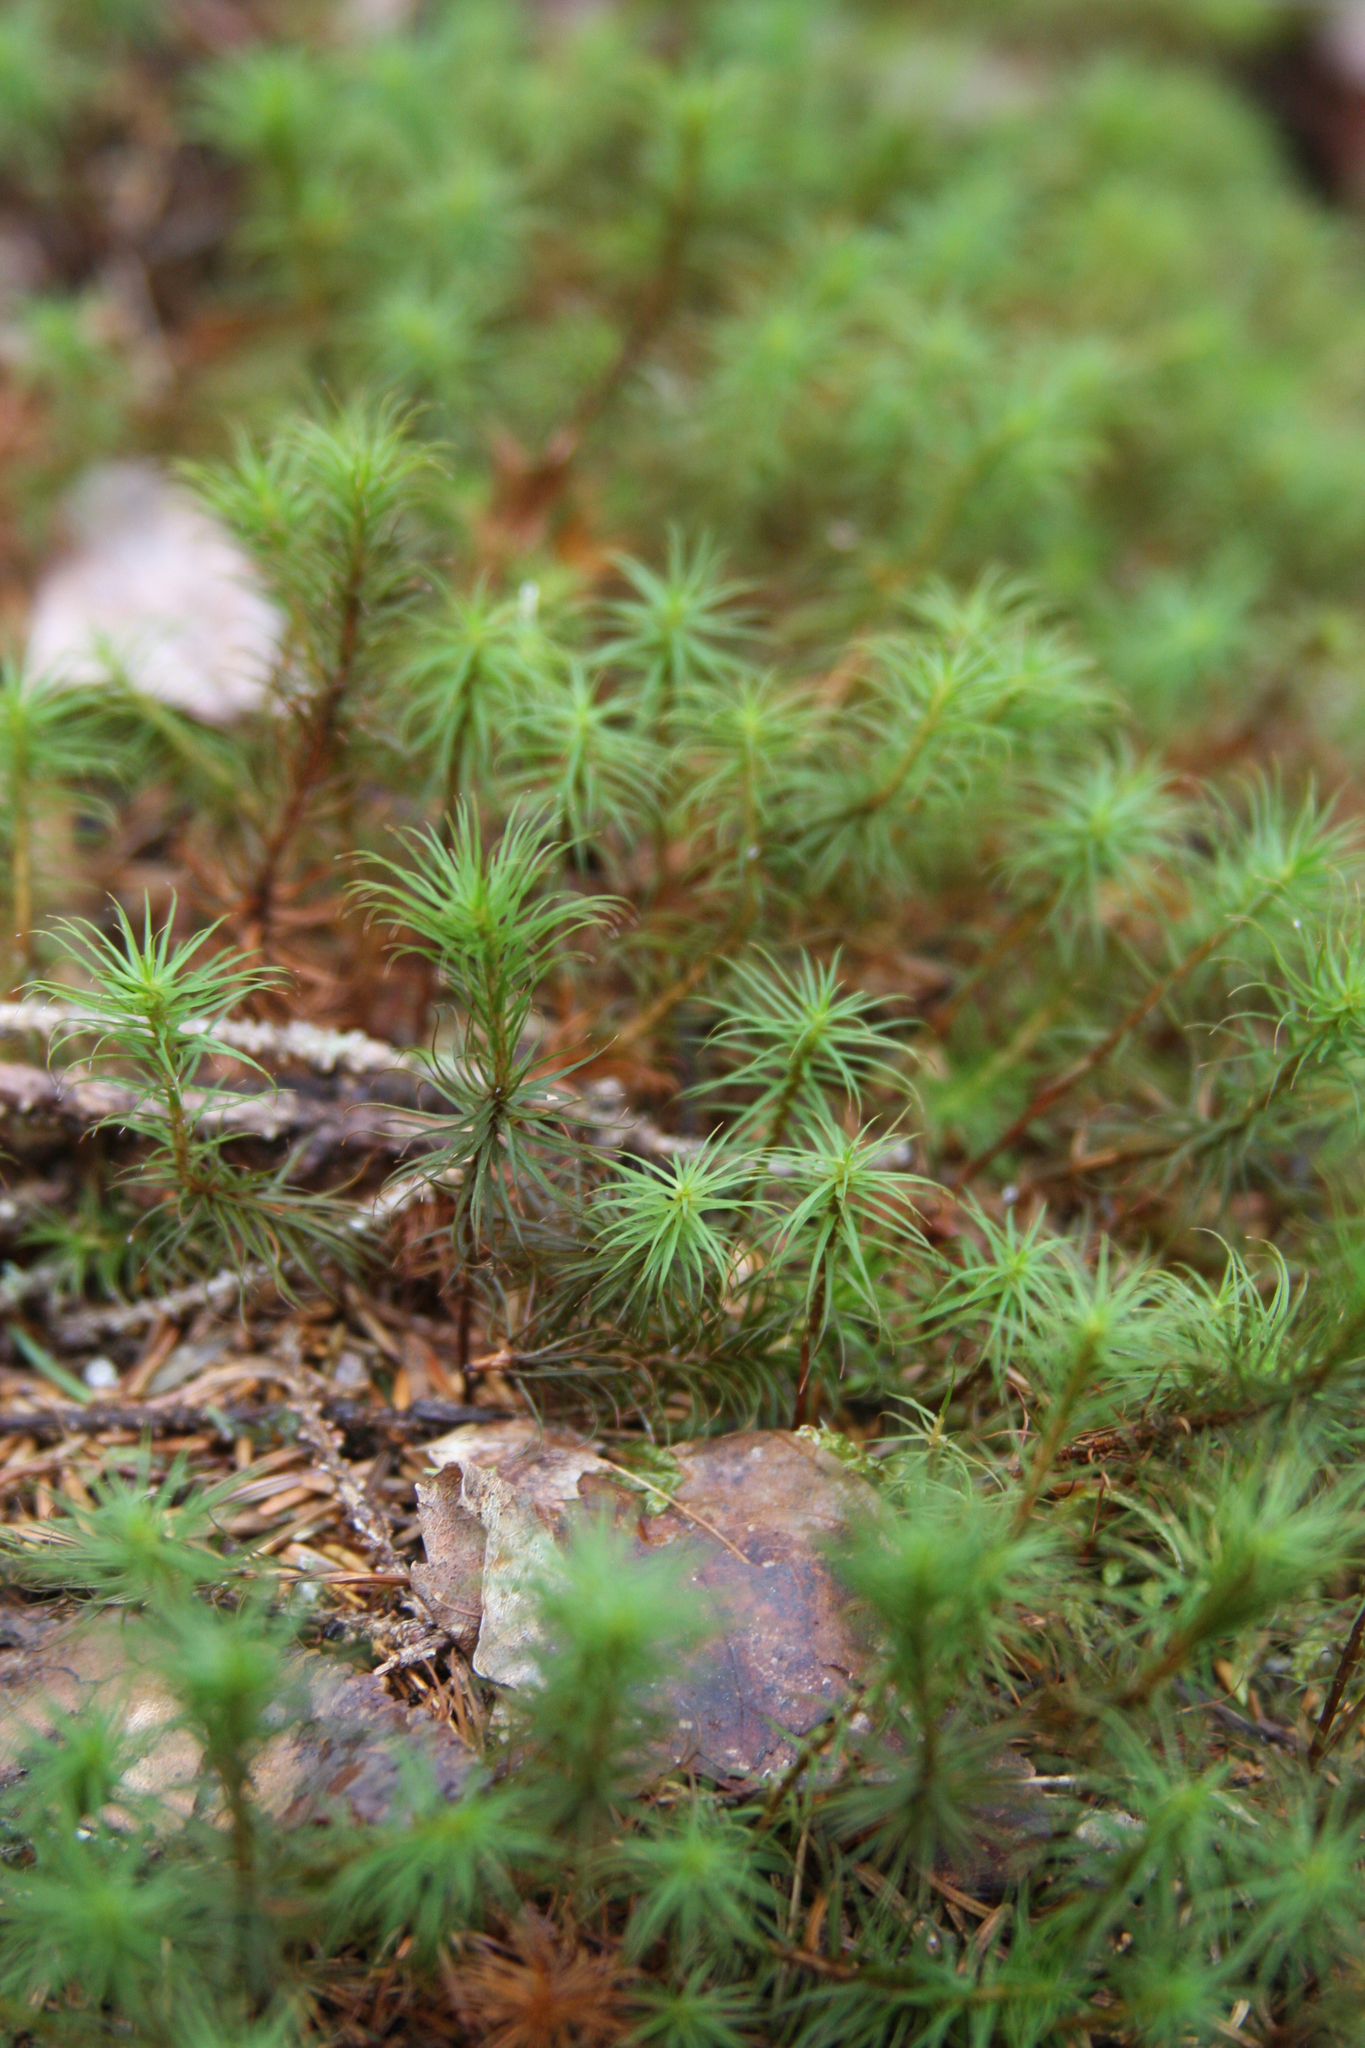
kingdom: Plantae
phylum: Bryophyta
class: Polytrichopsida
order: Polytrichales
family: Polytrichaceae
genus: Polytrichum
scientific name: Polytrichum commune
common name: Common haircap
